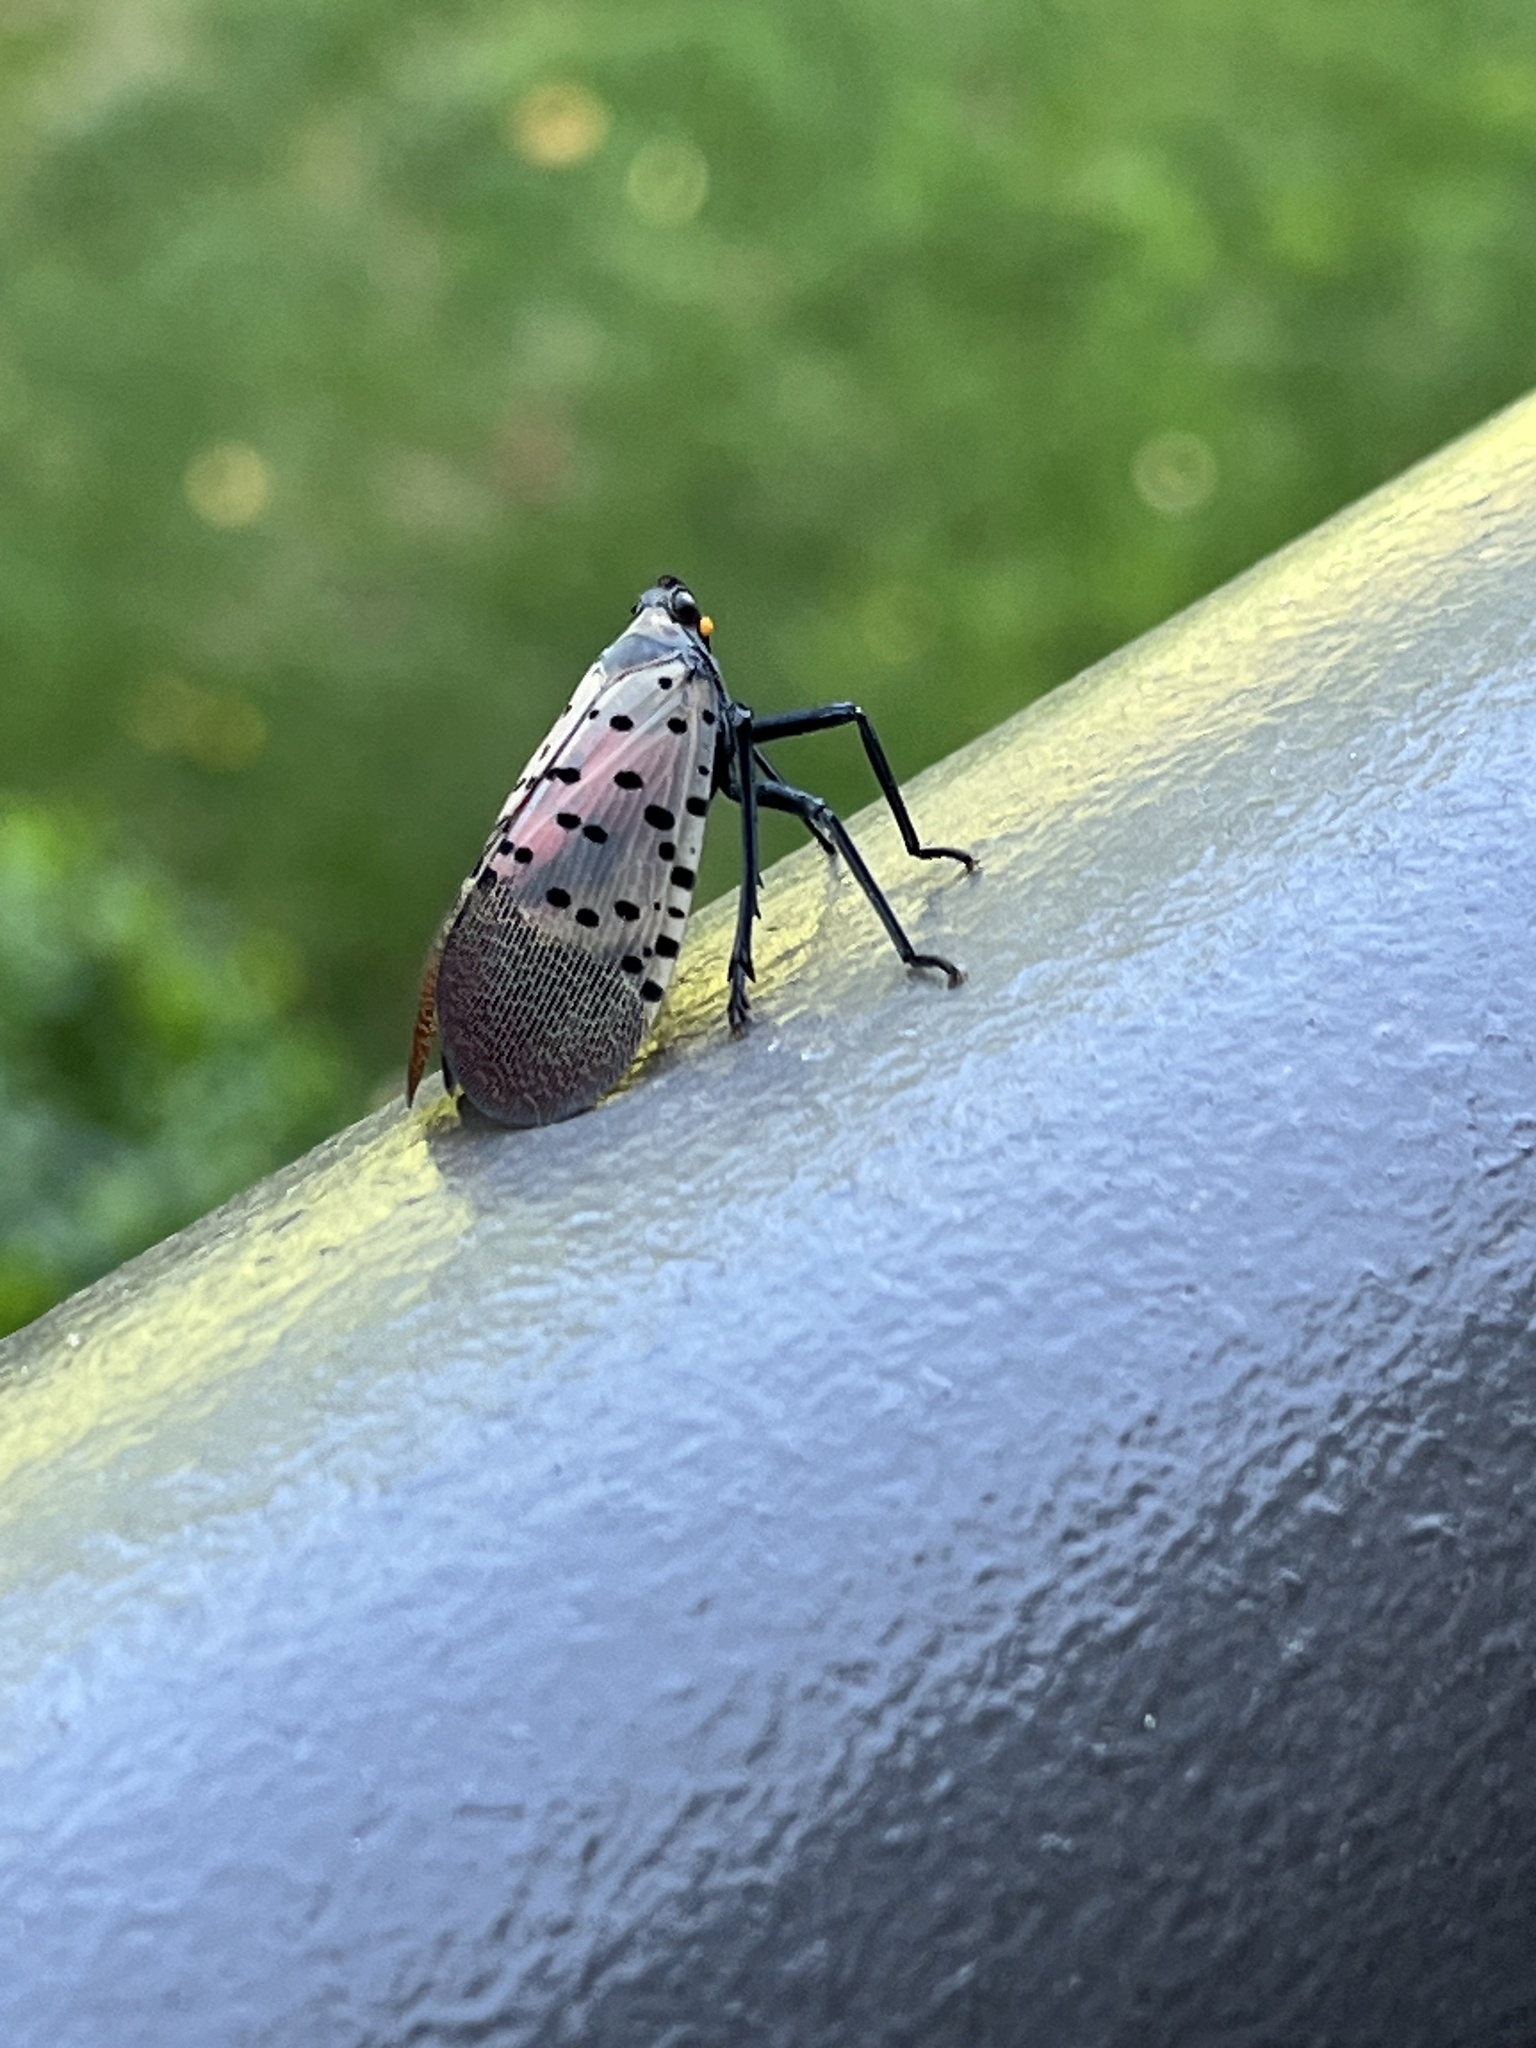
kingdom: Animalia
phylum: Arthropoda
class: Insecta
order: Hemiptera
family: Fulgoridae
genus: Lycorma
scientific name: Lycorma delicatula
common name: Spotted lanternfly
